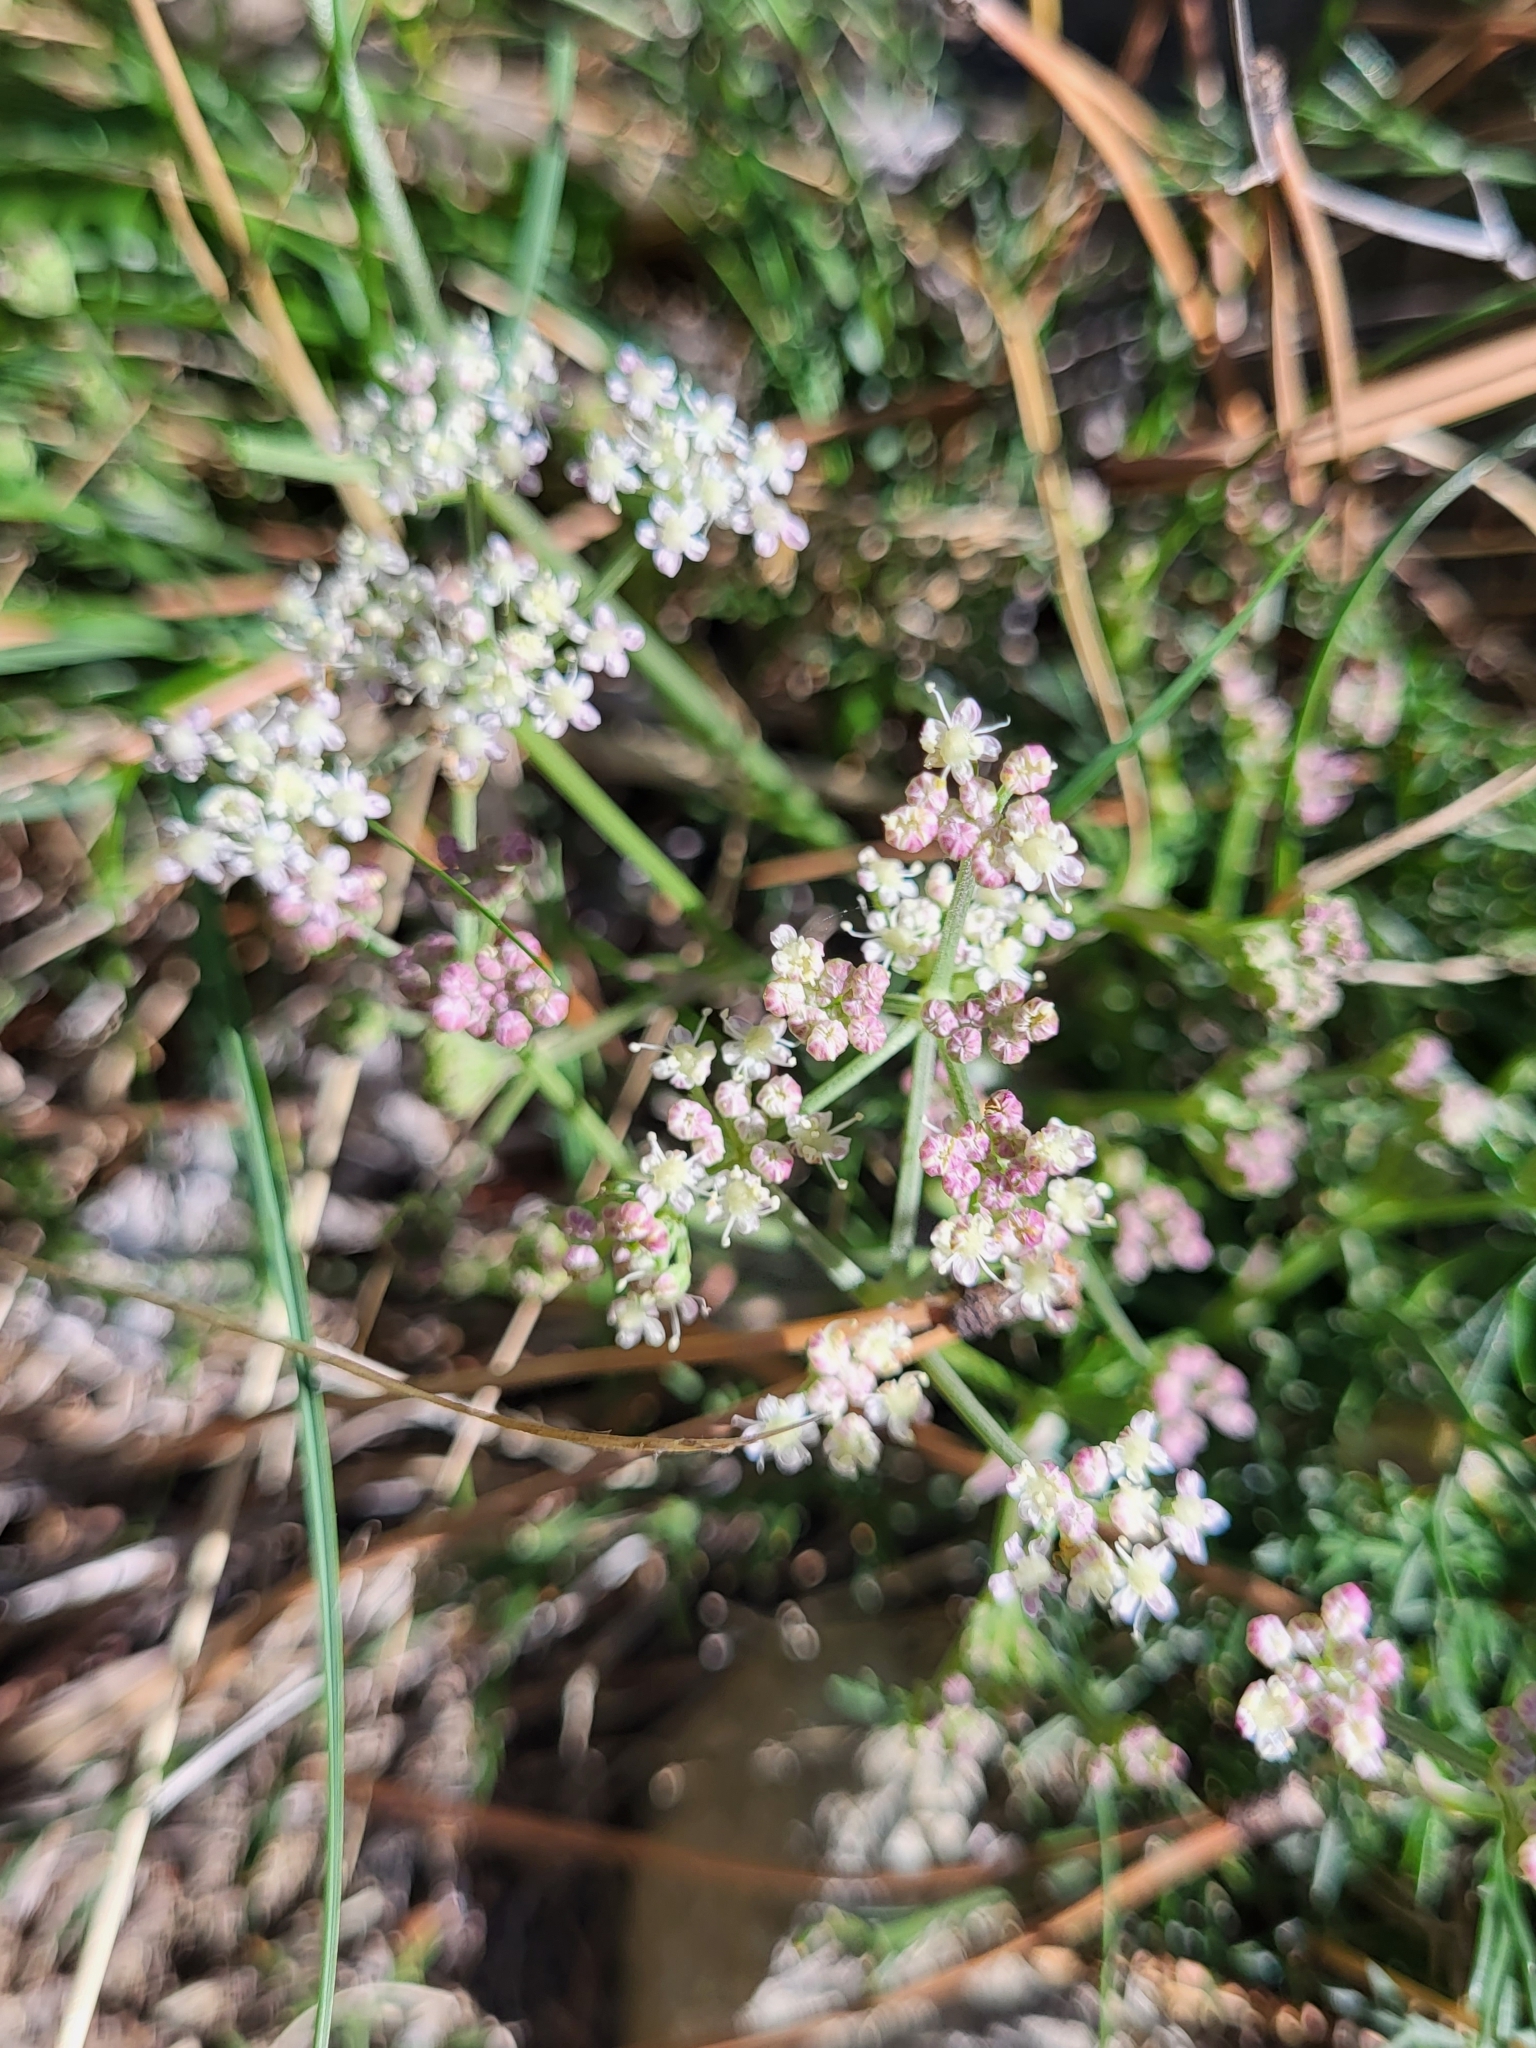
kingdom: Plantae
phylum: Tracheophyta
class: Magnoliopsida
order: Apiales
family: Apiaceae
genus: Seseli
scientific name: Seseli montanum
